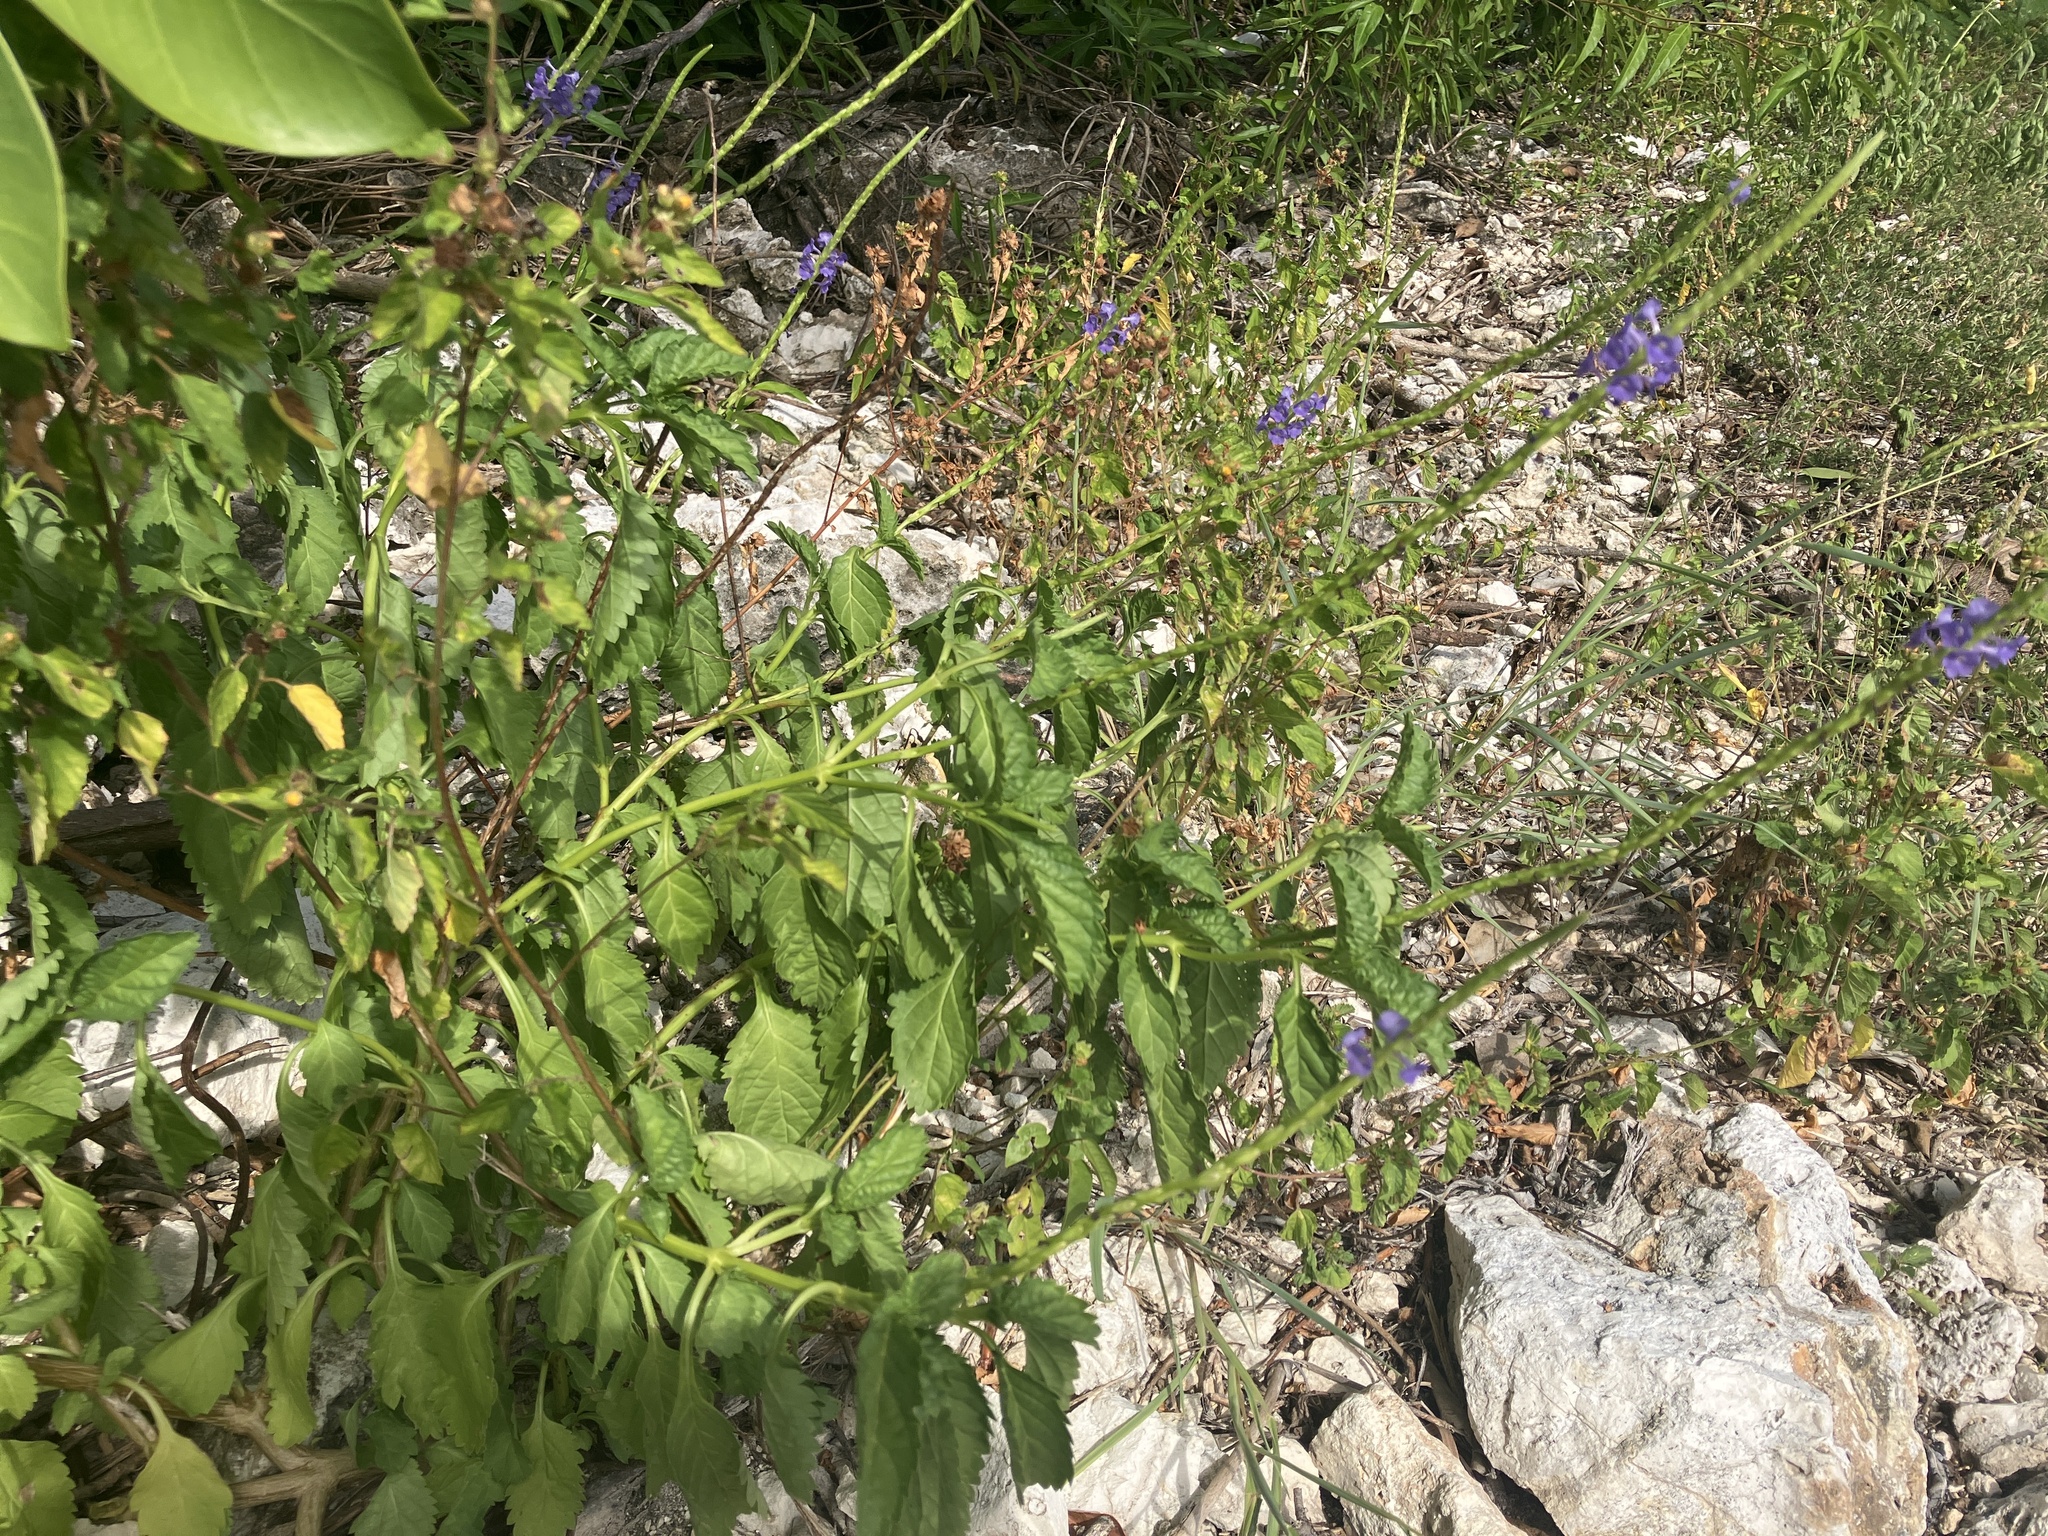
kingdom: Plantae
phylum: Tracheophyta
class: Magnoliopsida
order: Lamiales
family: Verbenaceae
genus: Stachytarpheta
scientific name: Stachytarpheta jamaicensis
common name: Light-blue snakeweed
